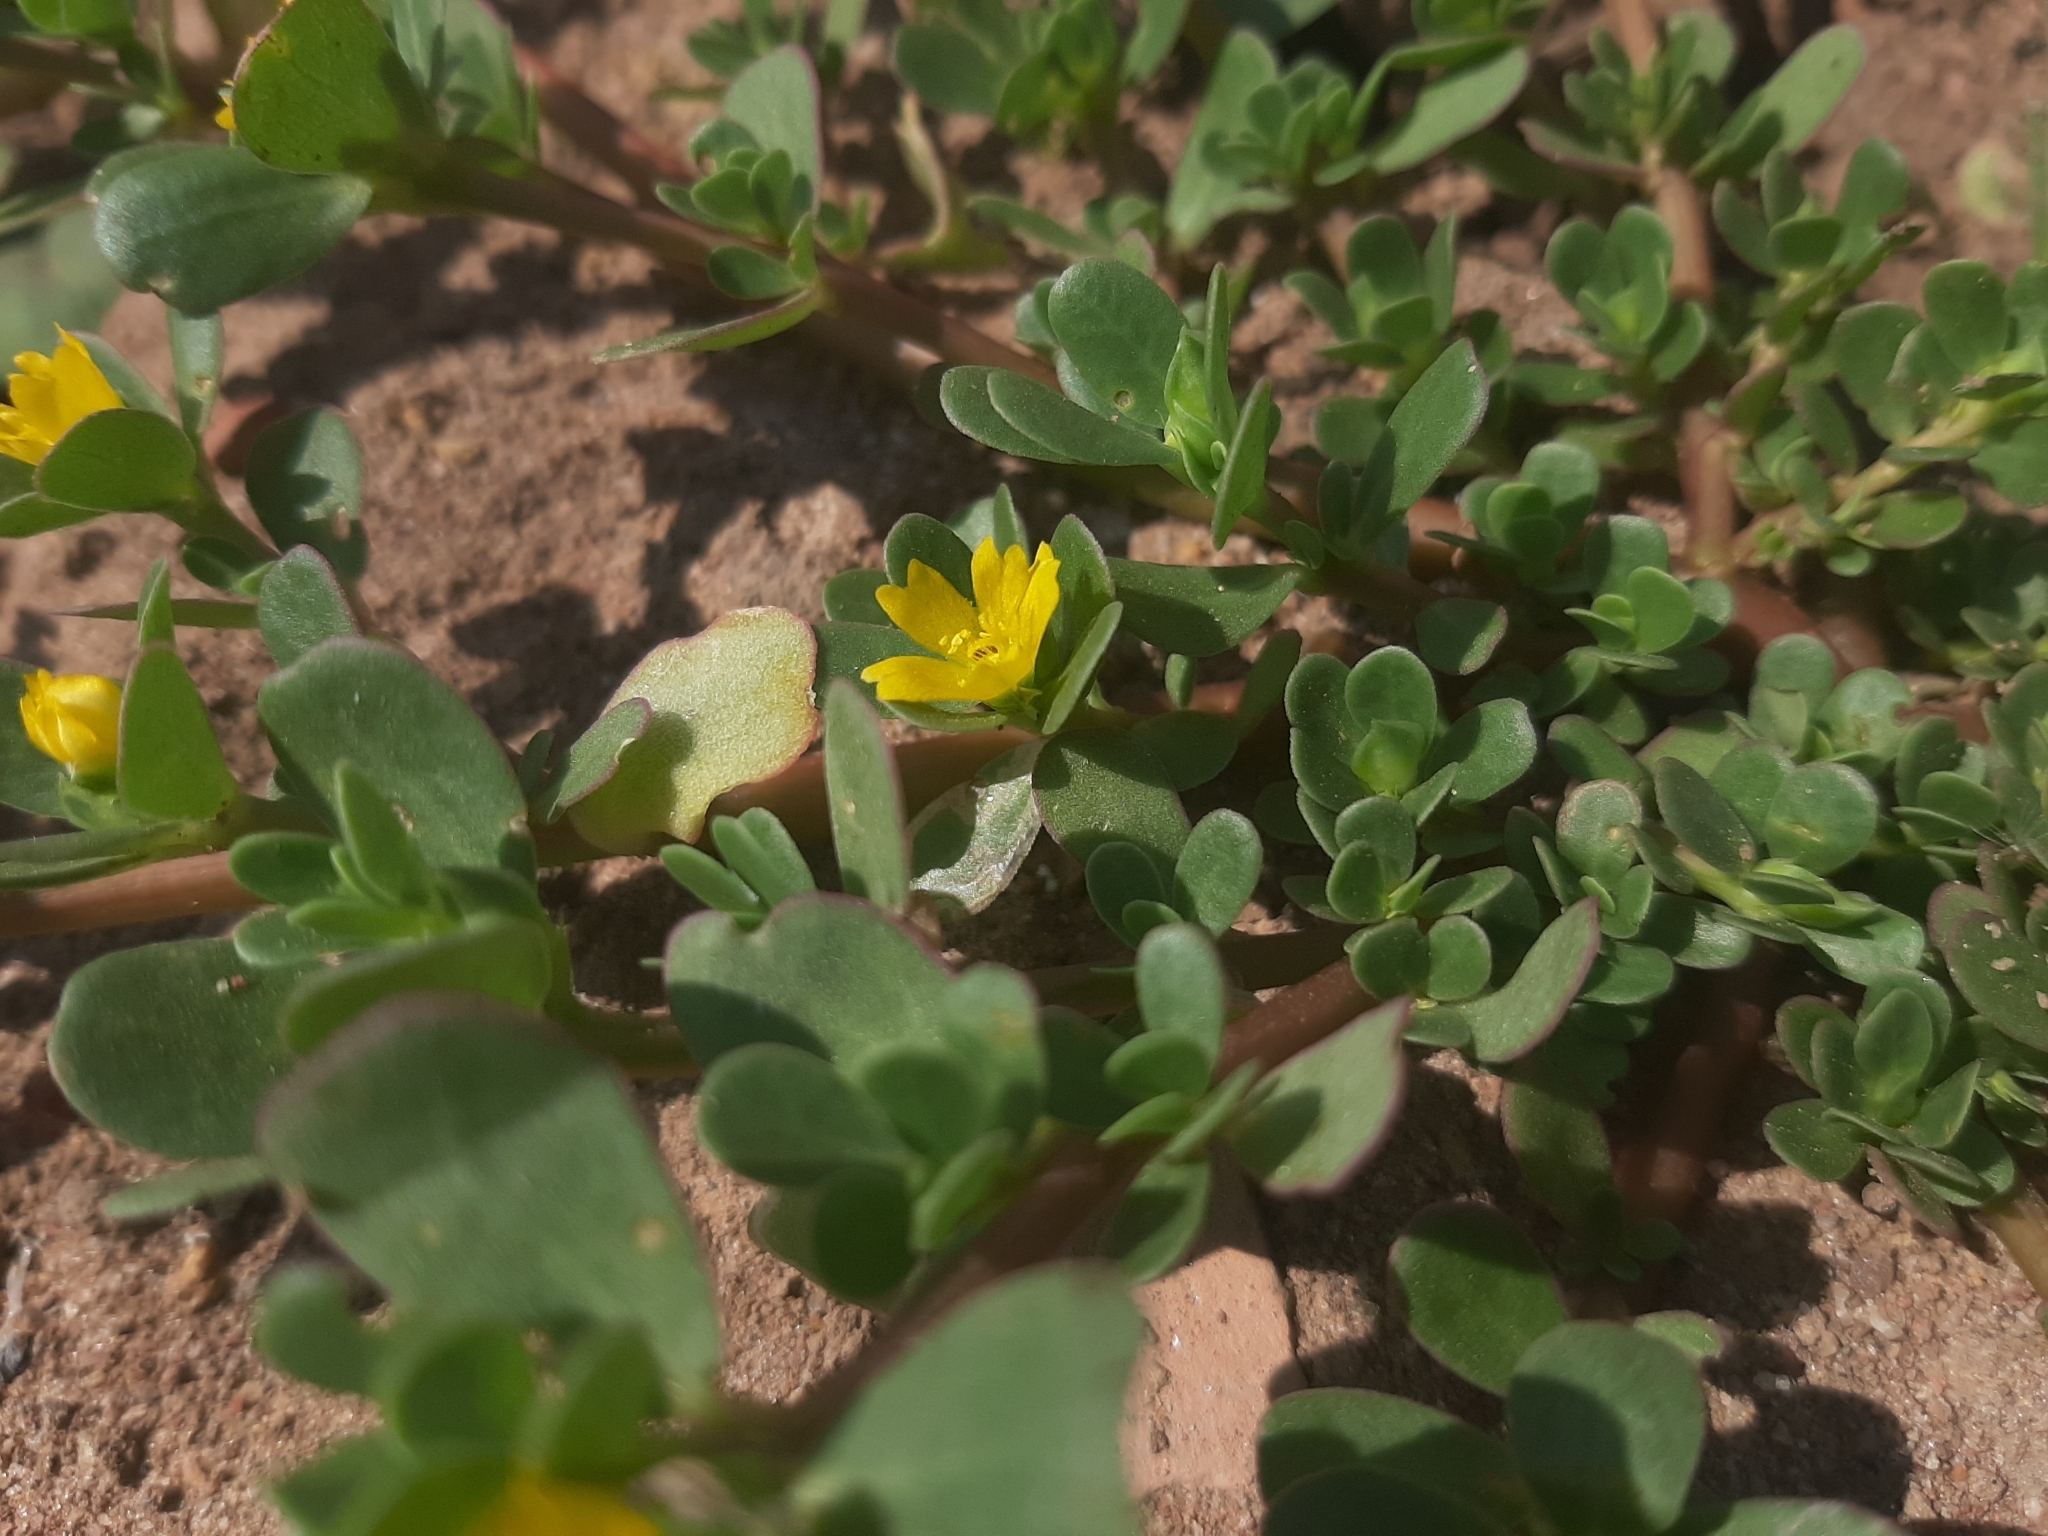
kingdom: Plantae
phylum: Tracheophyta
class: Magnoliopsida
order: Caryophyllales
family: Portulacaceae
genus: Portulaca
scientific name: Portulaca oleracea
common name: Common purslane
